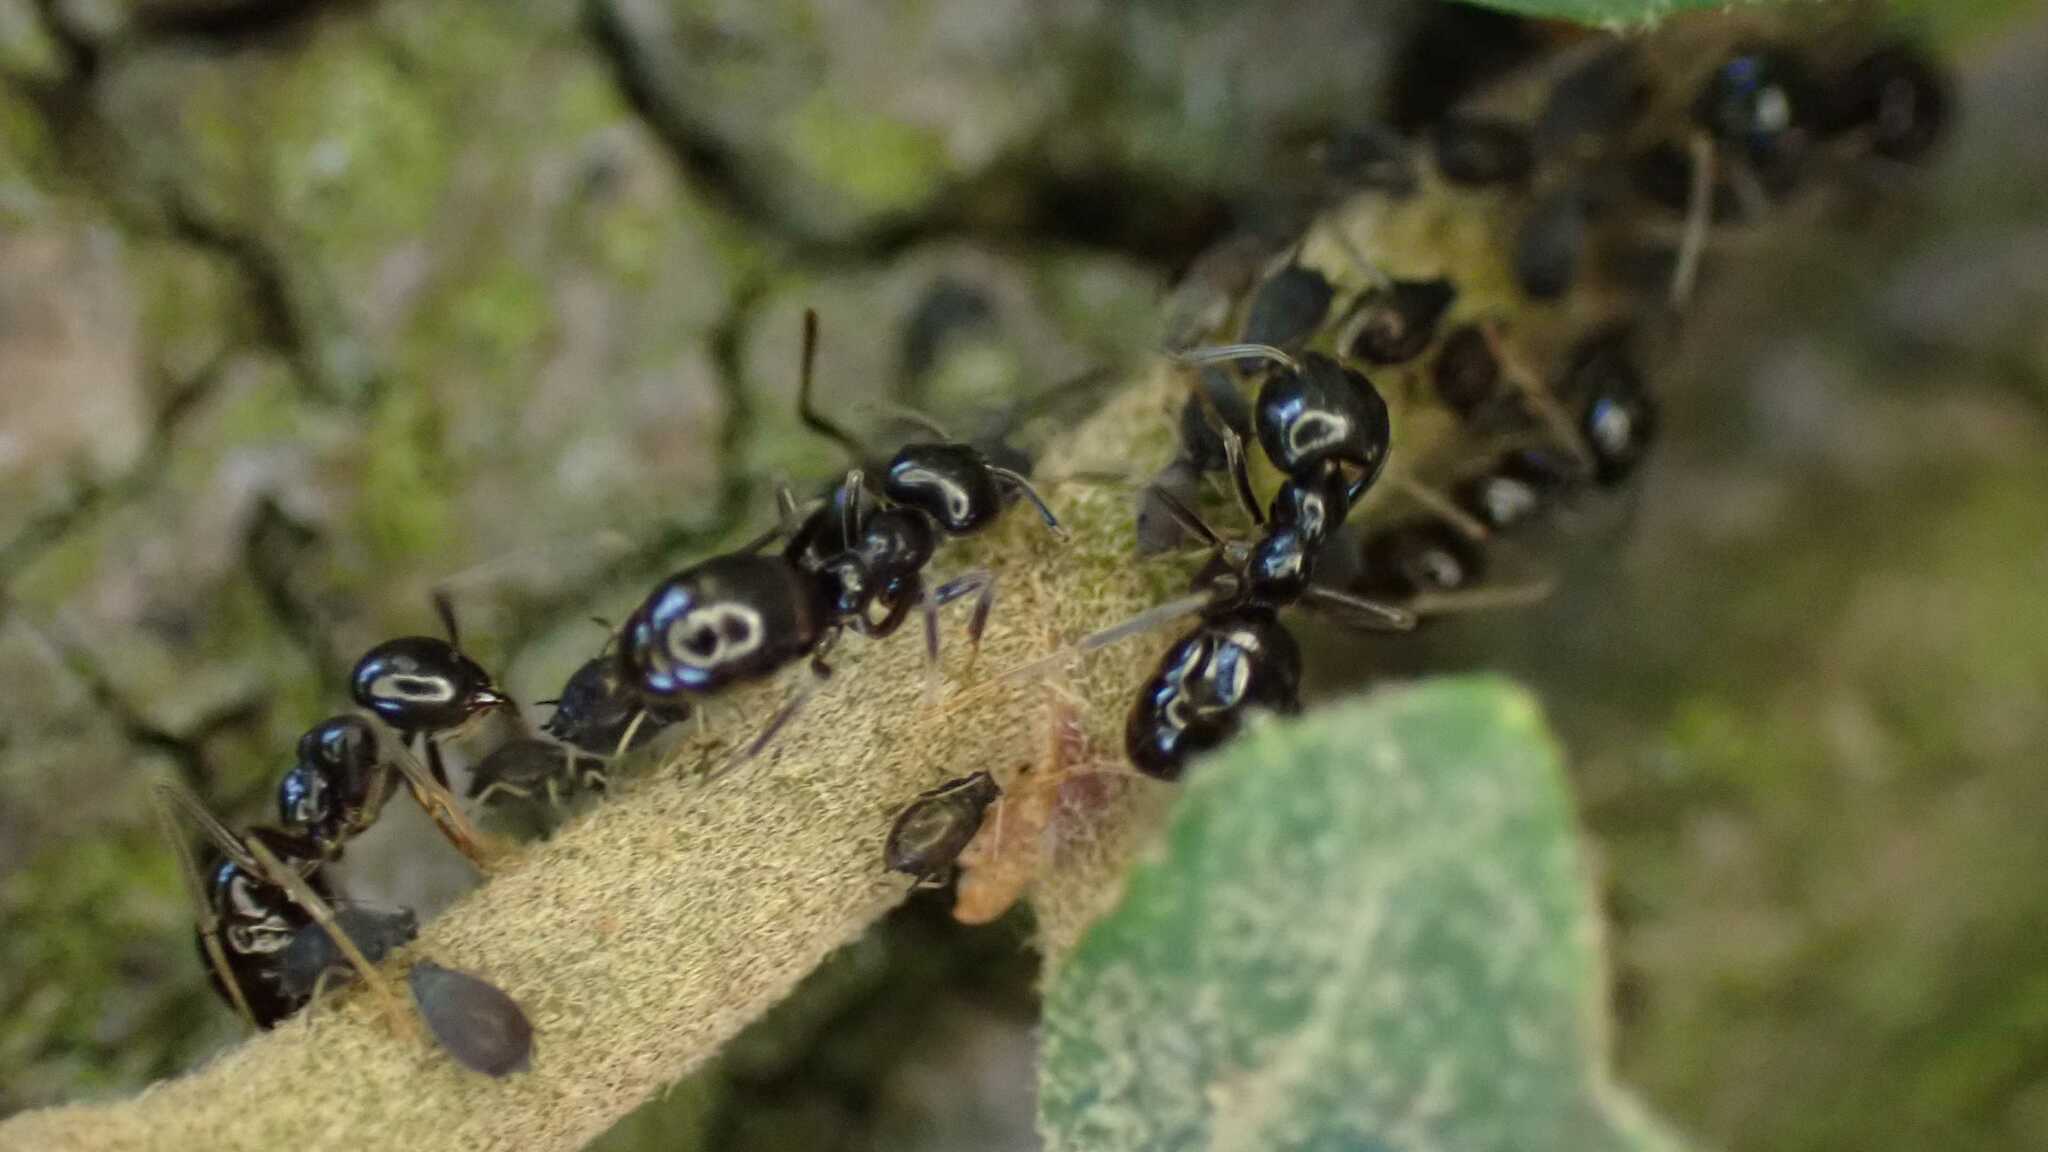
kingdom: Animalia
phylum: Arthropoda
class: Insecta
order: Hymenoptera
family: Formicidae
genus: Lasius
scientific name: Lasius fuliginosus
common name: Jet ant
